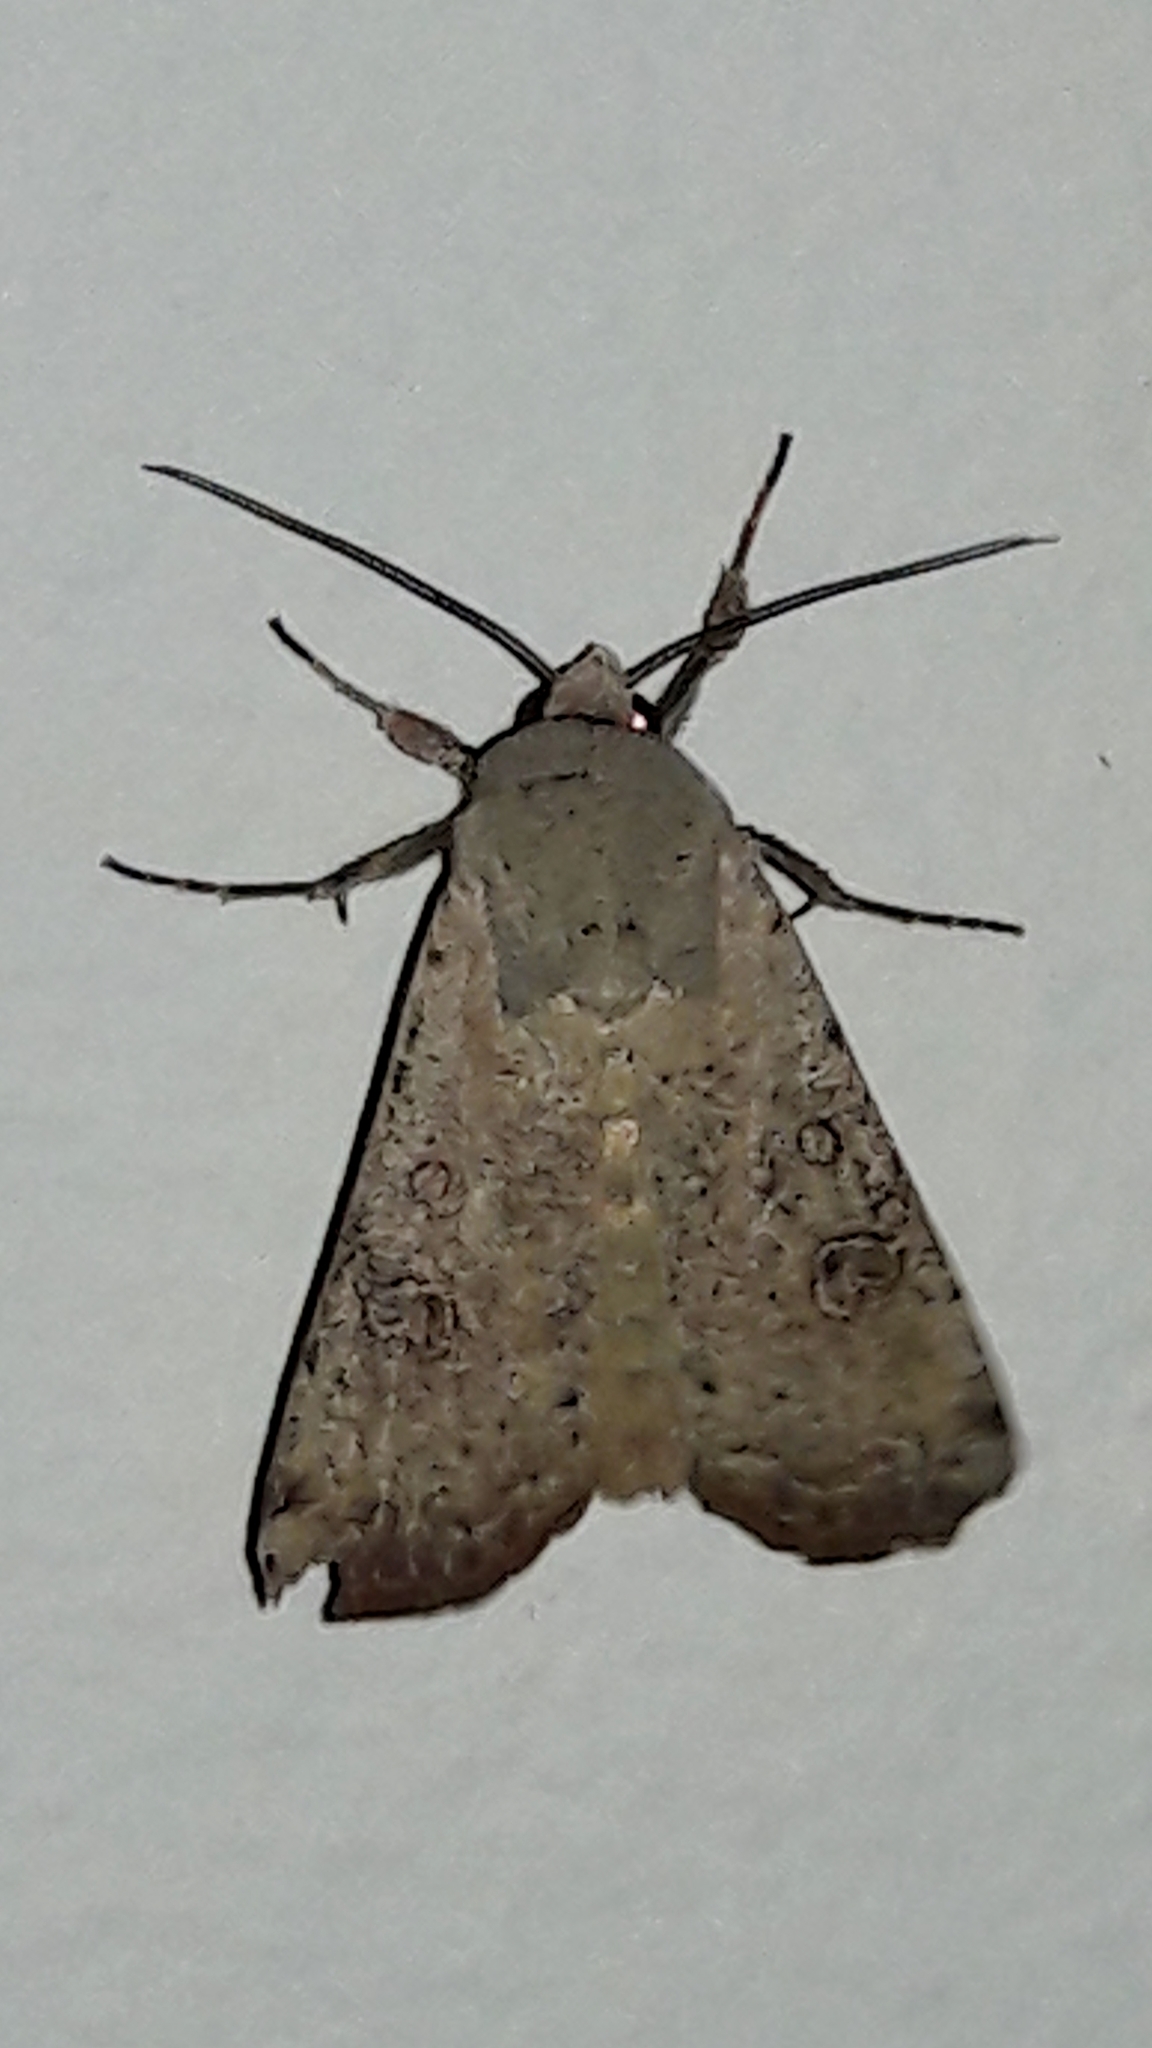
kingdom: Animalia
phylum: Arthropoda
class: Insecta
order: Lepidoptera
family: Noctuidae
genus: Anicla
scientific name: Anicla infecta
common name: Green cutworm
